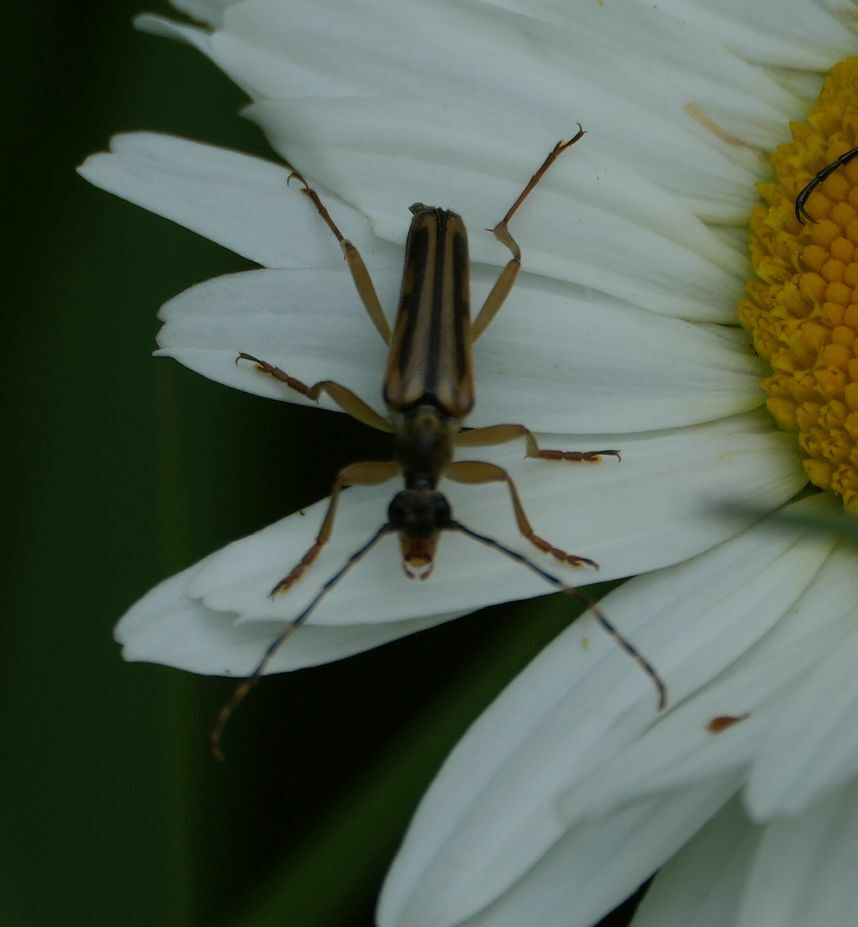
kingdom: Animalia
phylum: Arthropoda
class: Insecta
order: Coleoptera
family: Cerambycidae
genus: Analeptura
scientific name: Analeptura lineola
